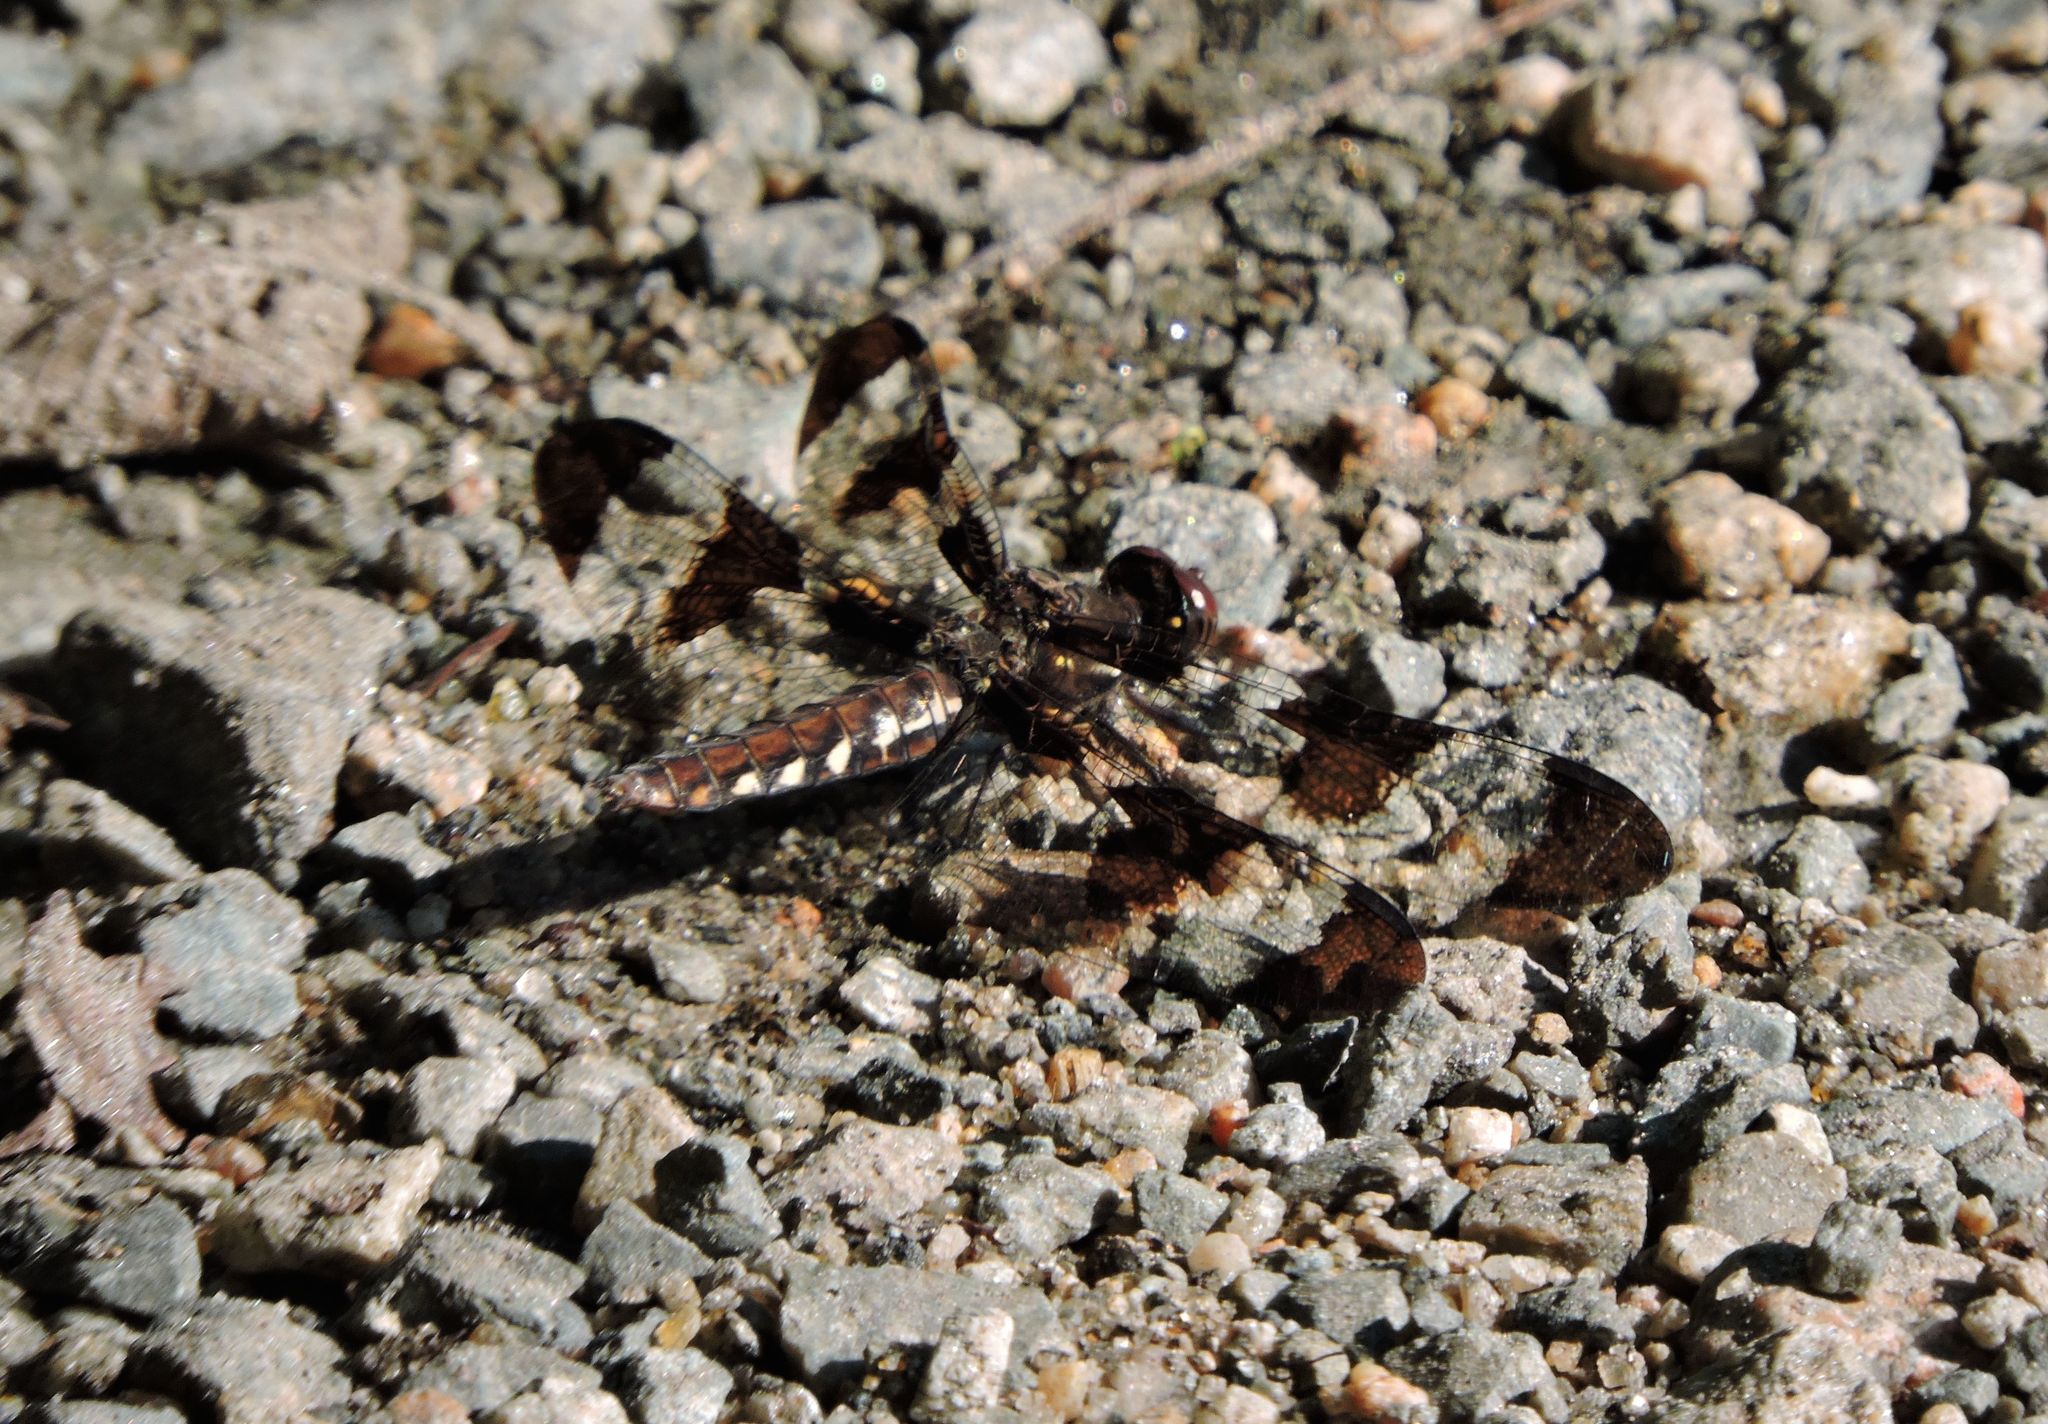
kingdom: Animalia
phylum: Arthropoda
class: Insecta
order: Odonata
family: Libellulidae
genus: Plathemis
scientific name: Plathemis lydia
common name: Common whitetail
